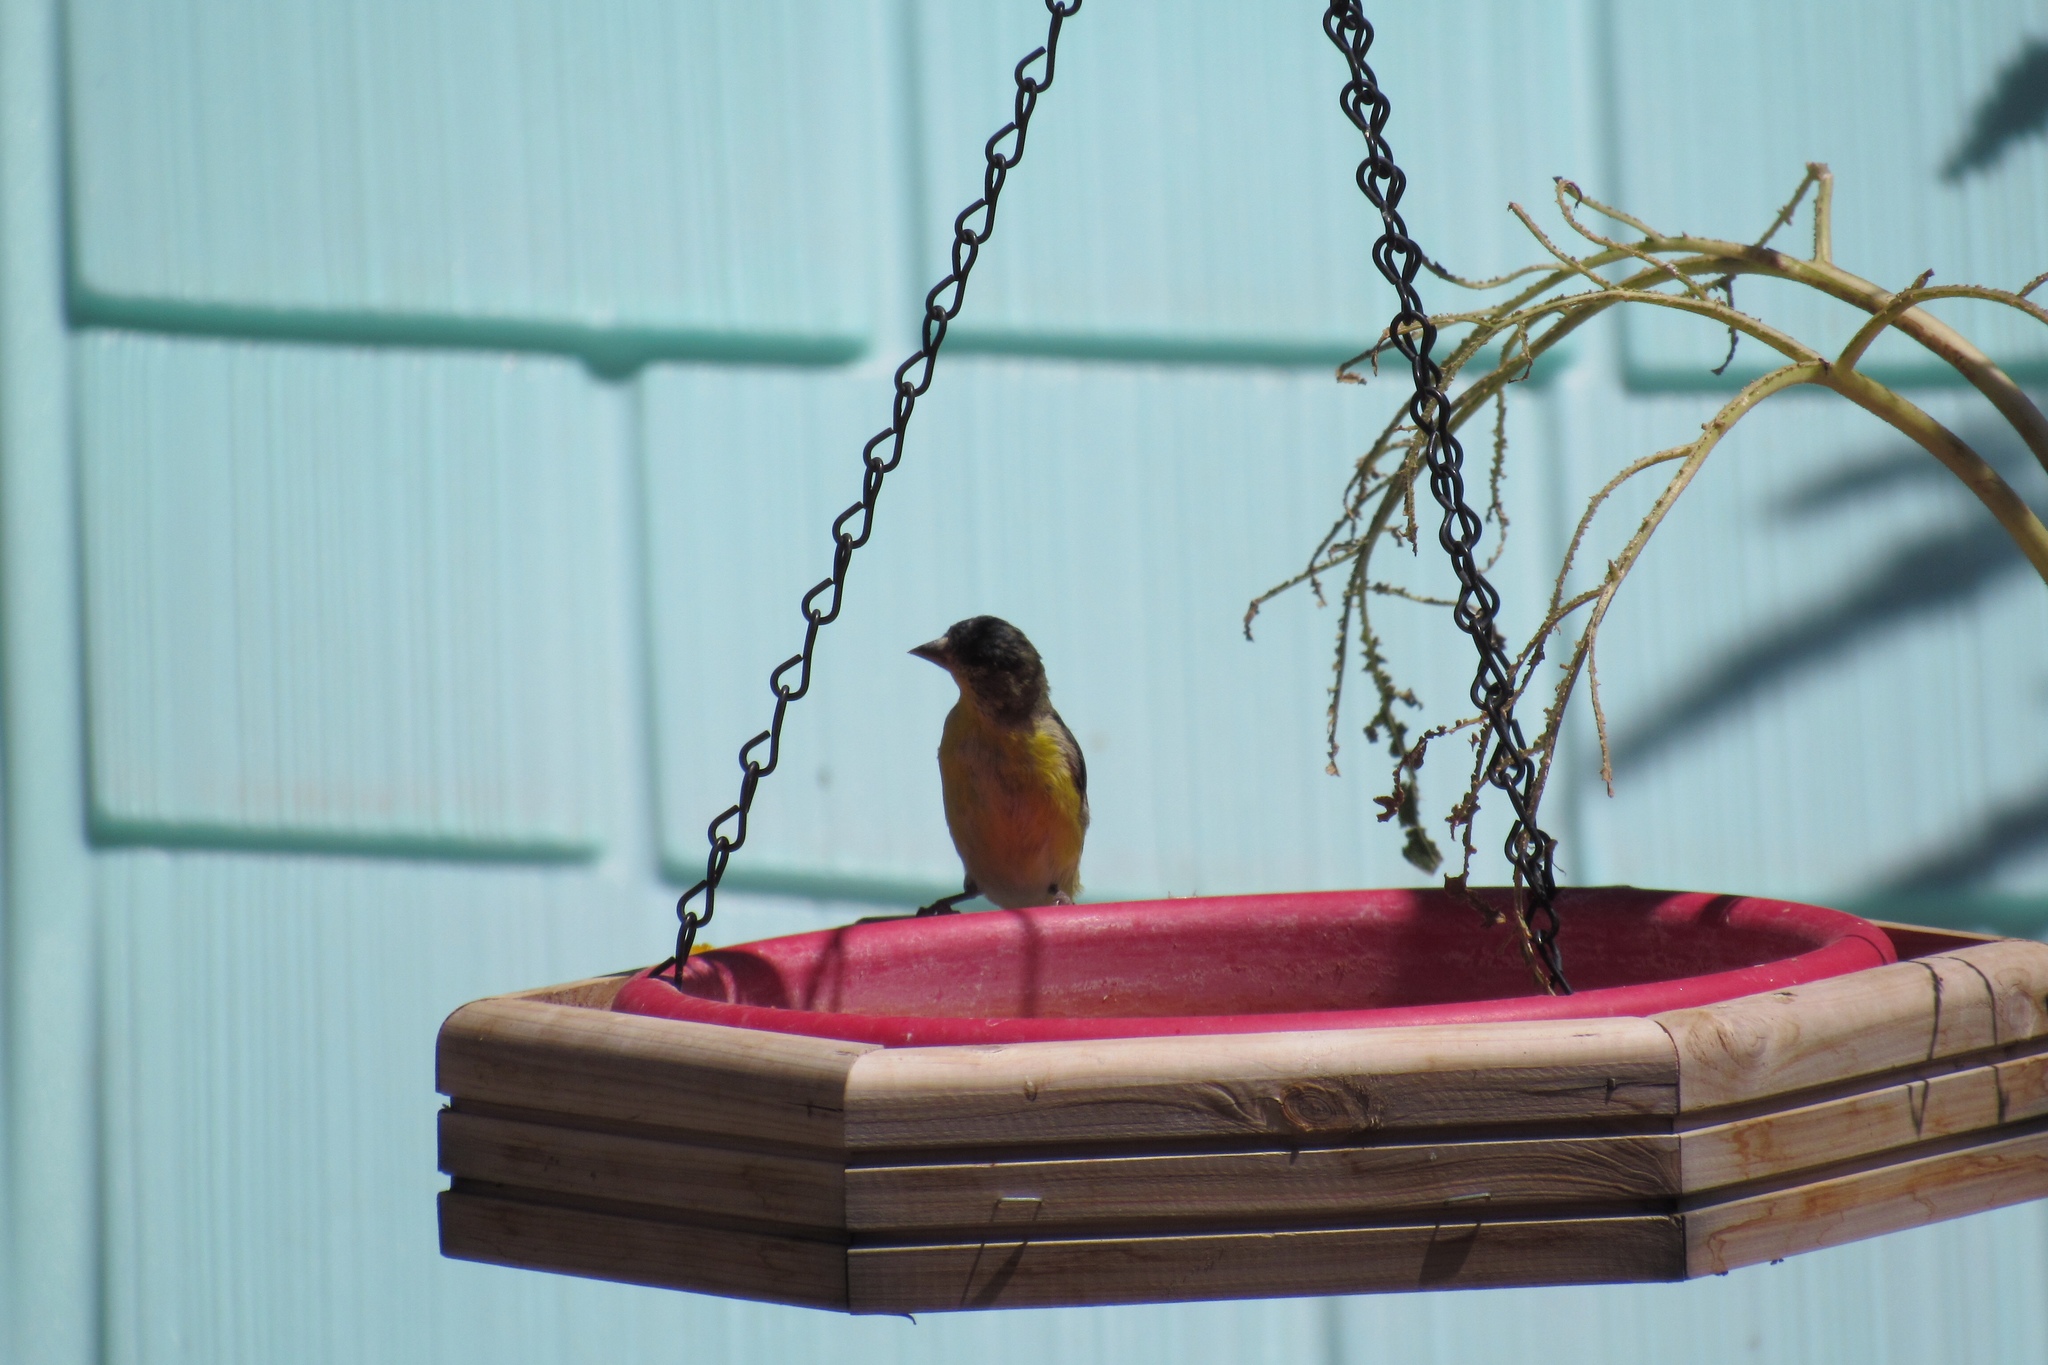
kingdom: Animalia
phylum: Chordata
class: Aves
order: Passeriformes
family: Fringillidae
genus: Spinus
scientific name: Spinus psaltria
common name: Lesser goldfinch
